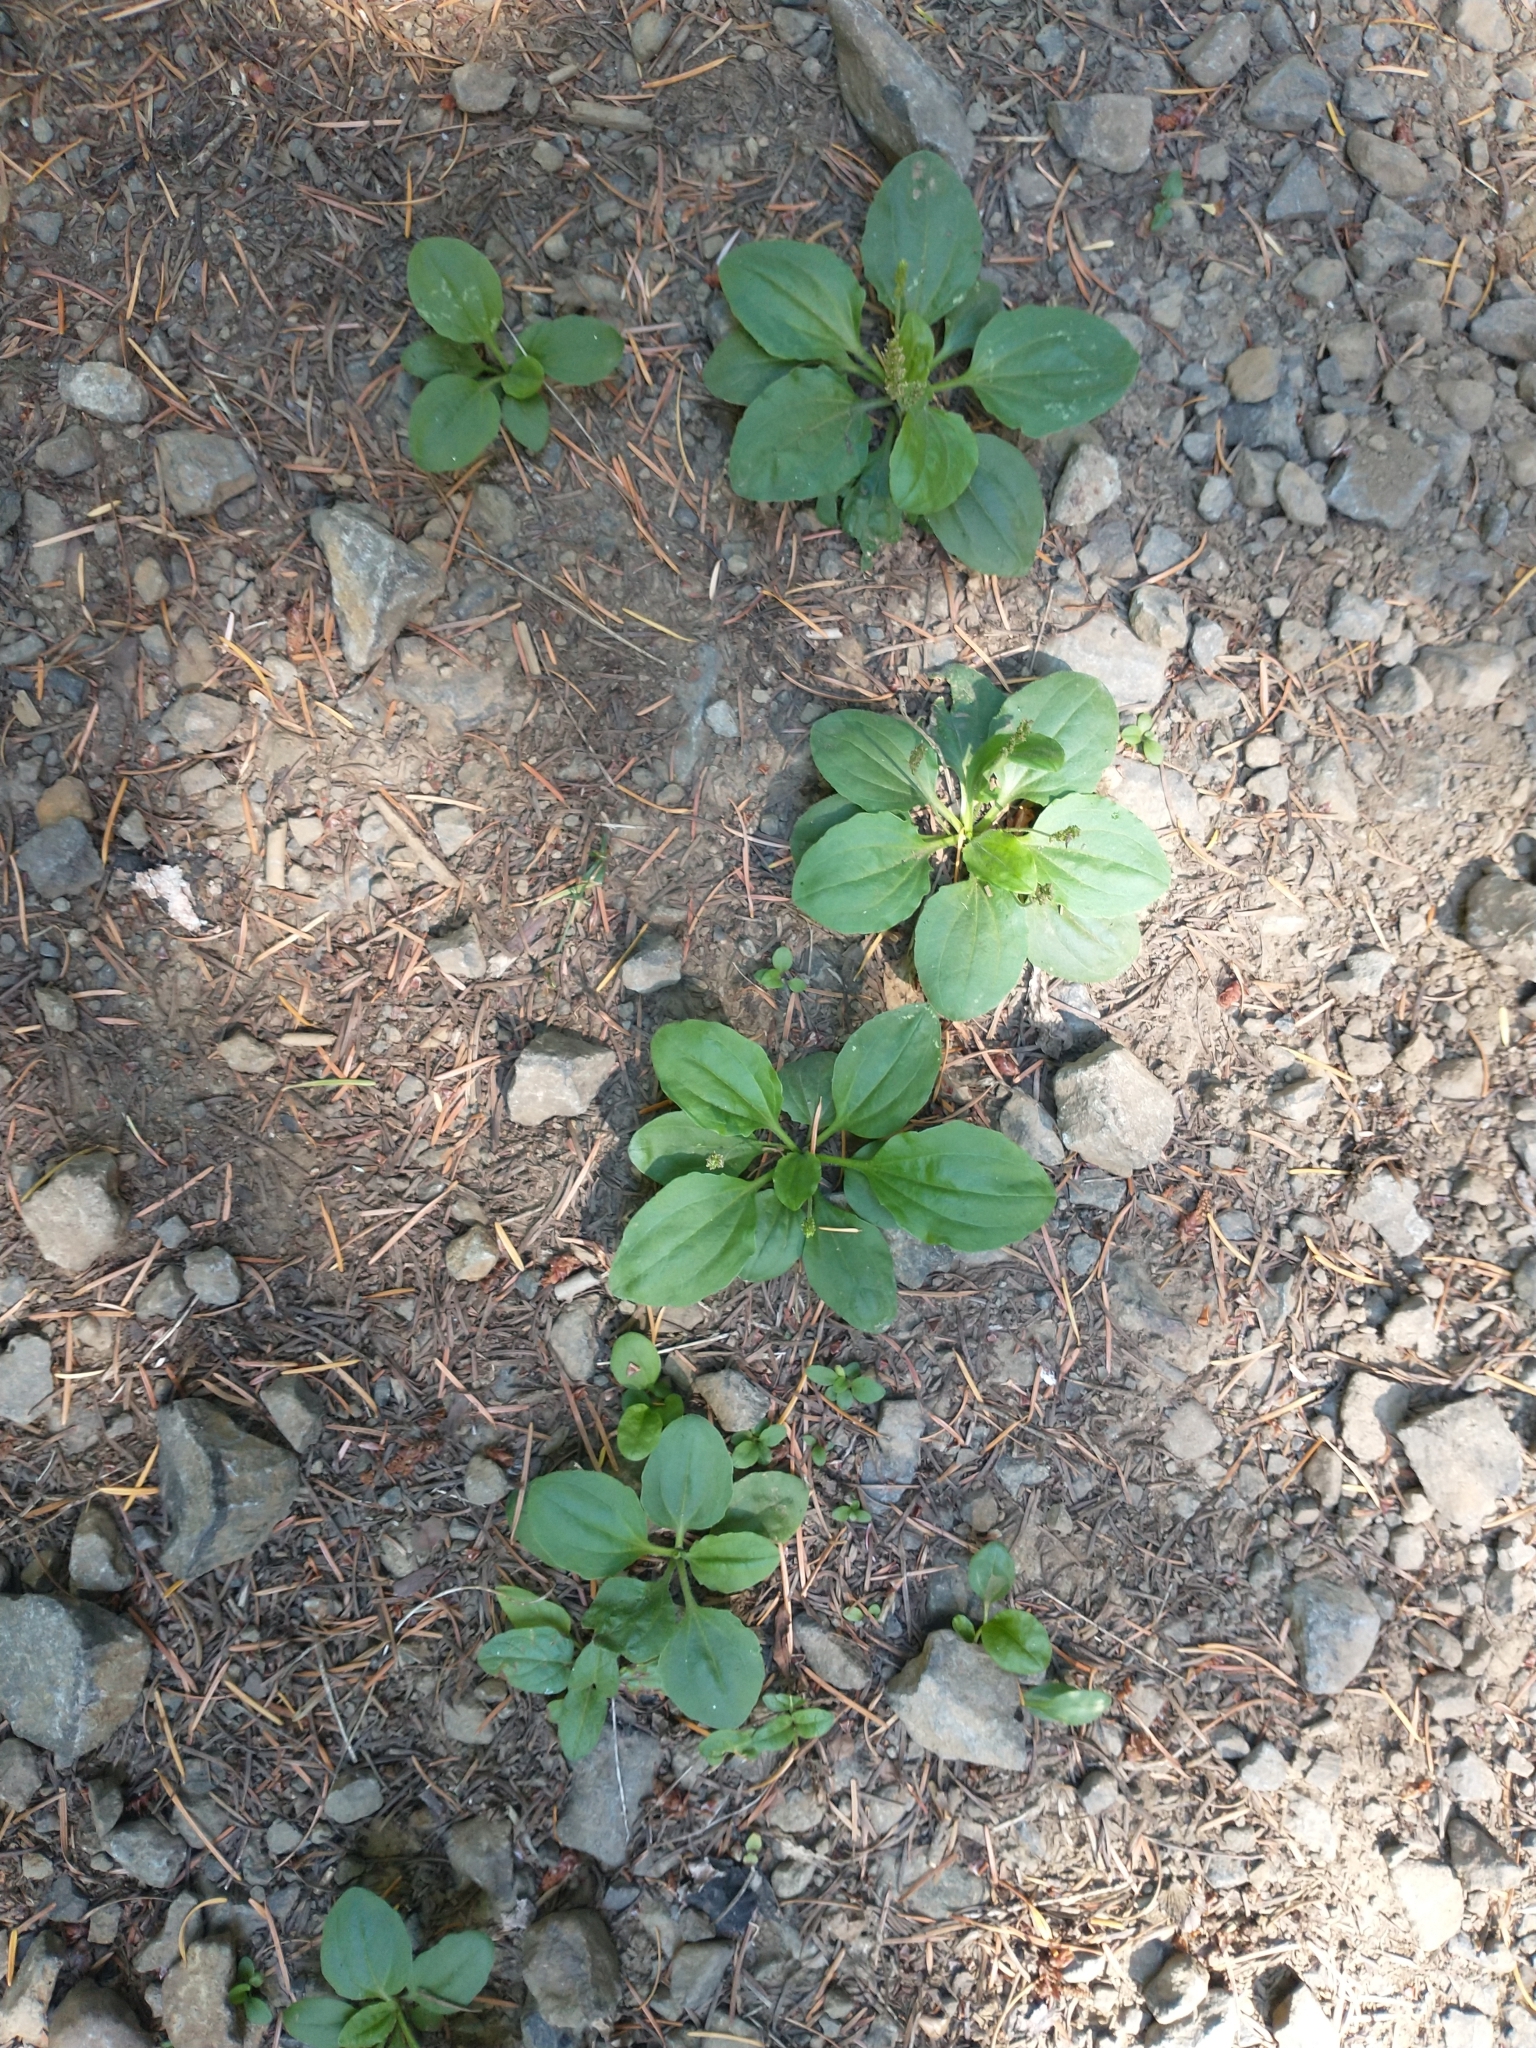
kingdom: Plantae
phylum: Tracheophyta
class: Magnoliopsida
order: Lamiales
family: Plantaginaceae
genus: Plantago
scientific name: Plantago major
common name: Common plantain
